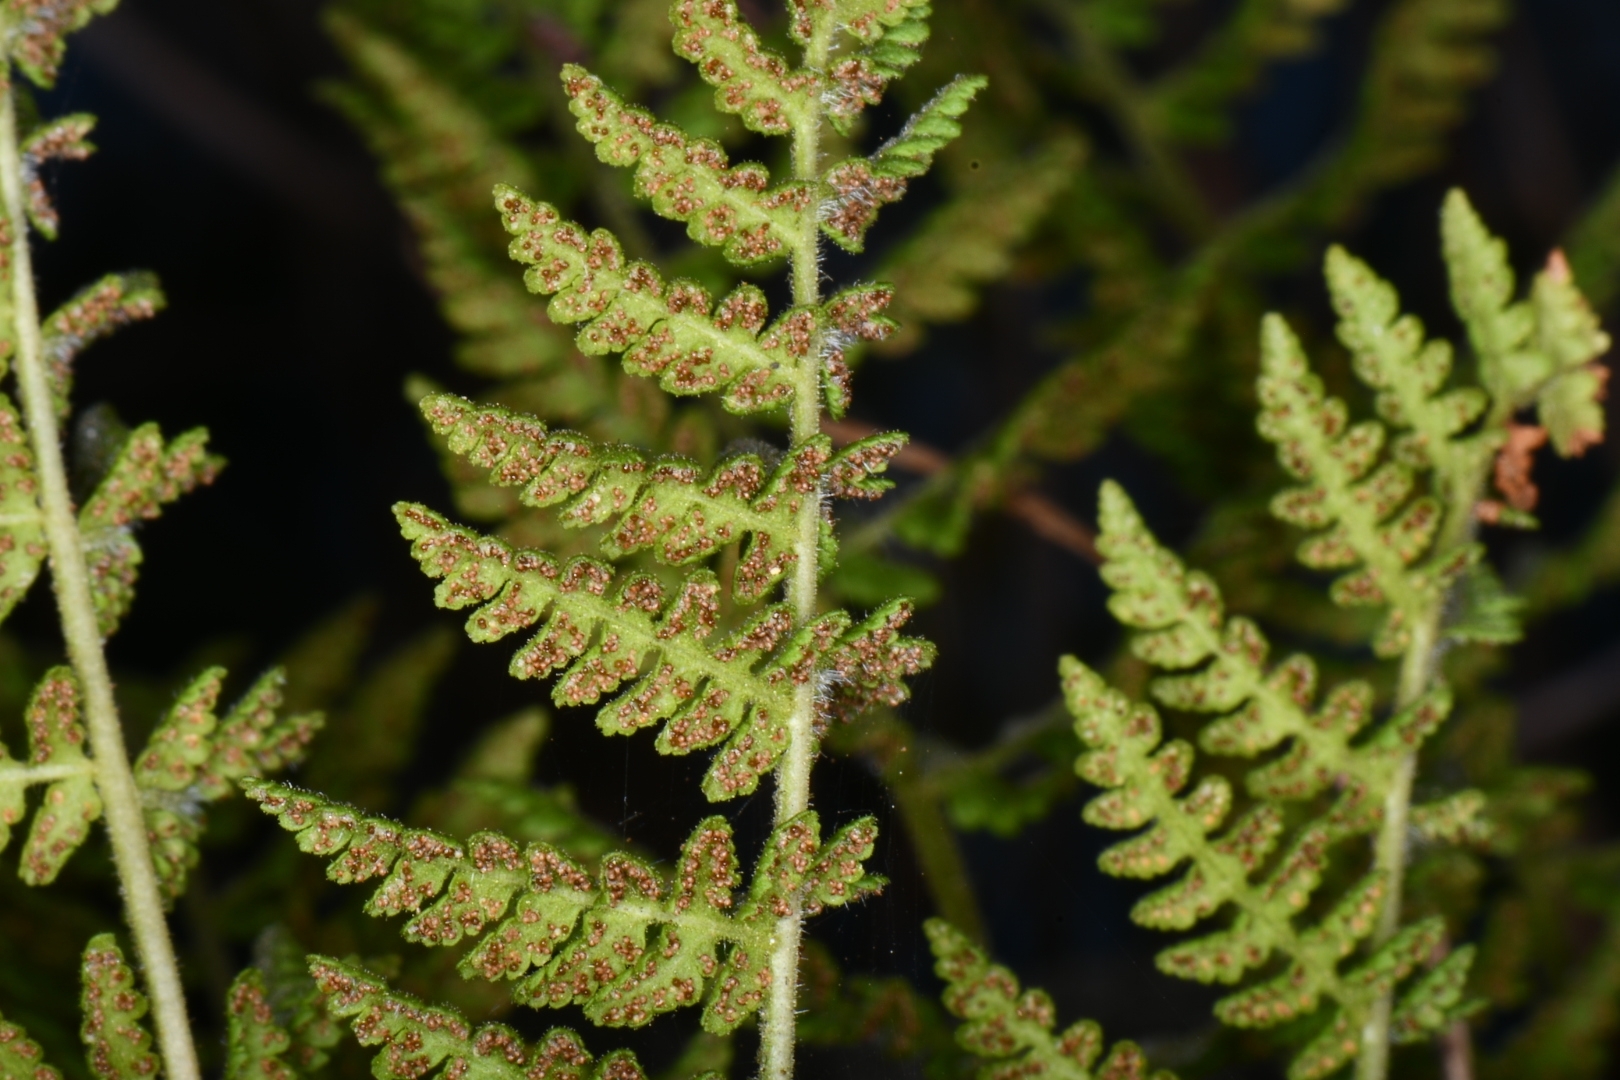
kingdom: Plantae
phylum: Tracheophyta
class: Polypodiopsida
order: Polypodiales
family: Woodsiaceae
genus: Physematium
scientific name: Physematium scopulinum
